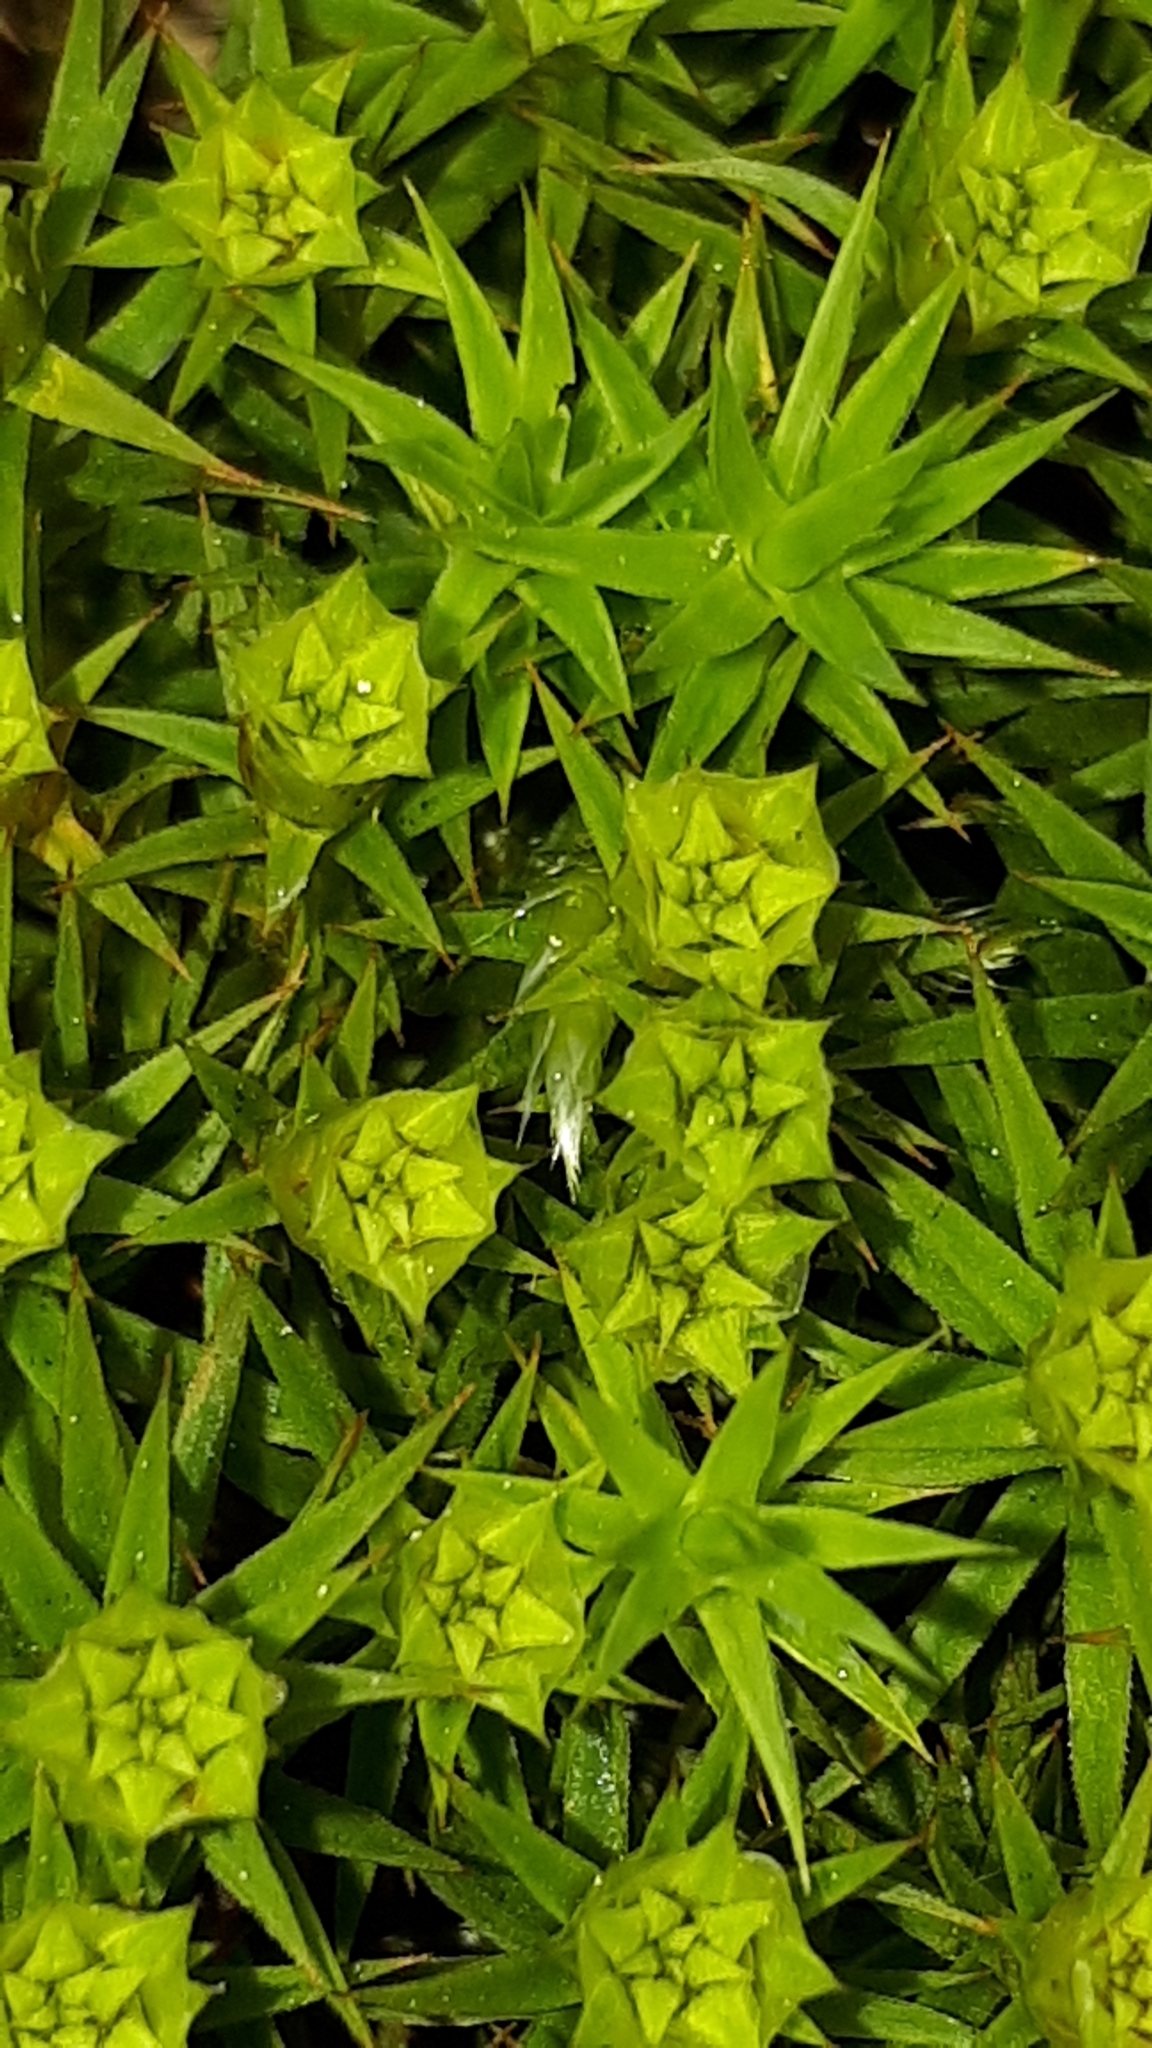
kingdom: Plantae
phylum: Bryophyta
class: Polytrichopsida
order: Polytrichales
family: Polytrichaceae
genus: Polytrichum
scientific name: Polytrichum formosum
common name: Bank haircap moss
